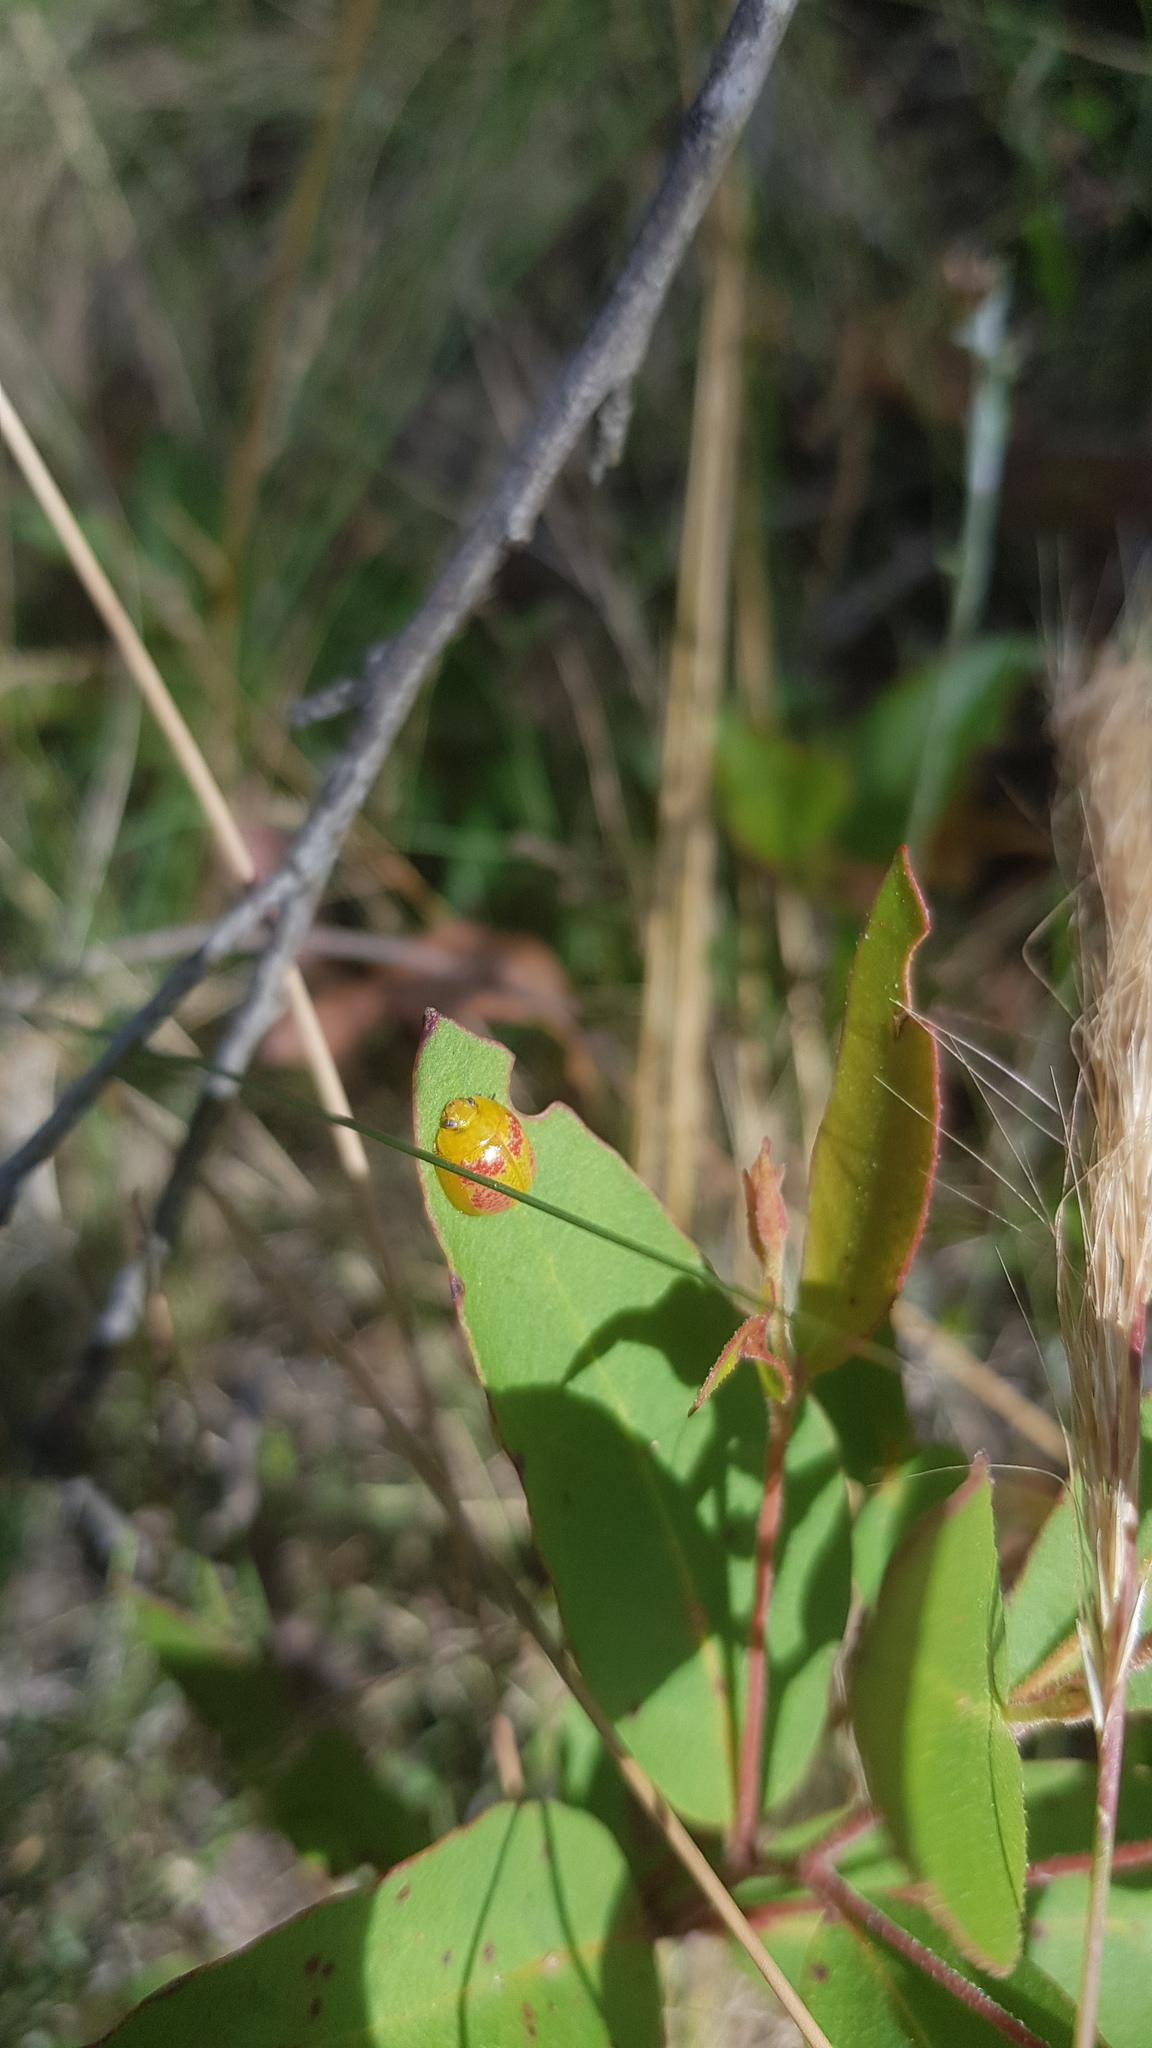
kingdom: Animalia
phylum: Arthropoda
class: Insecta
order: Coleoptera
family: Chrysomelidae
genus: Paropsisterna
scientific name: Paropsisterna
